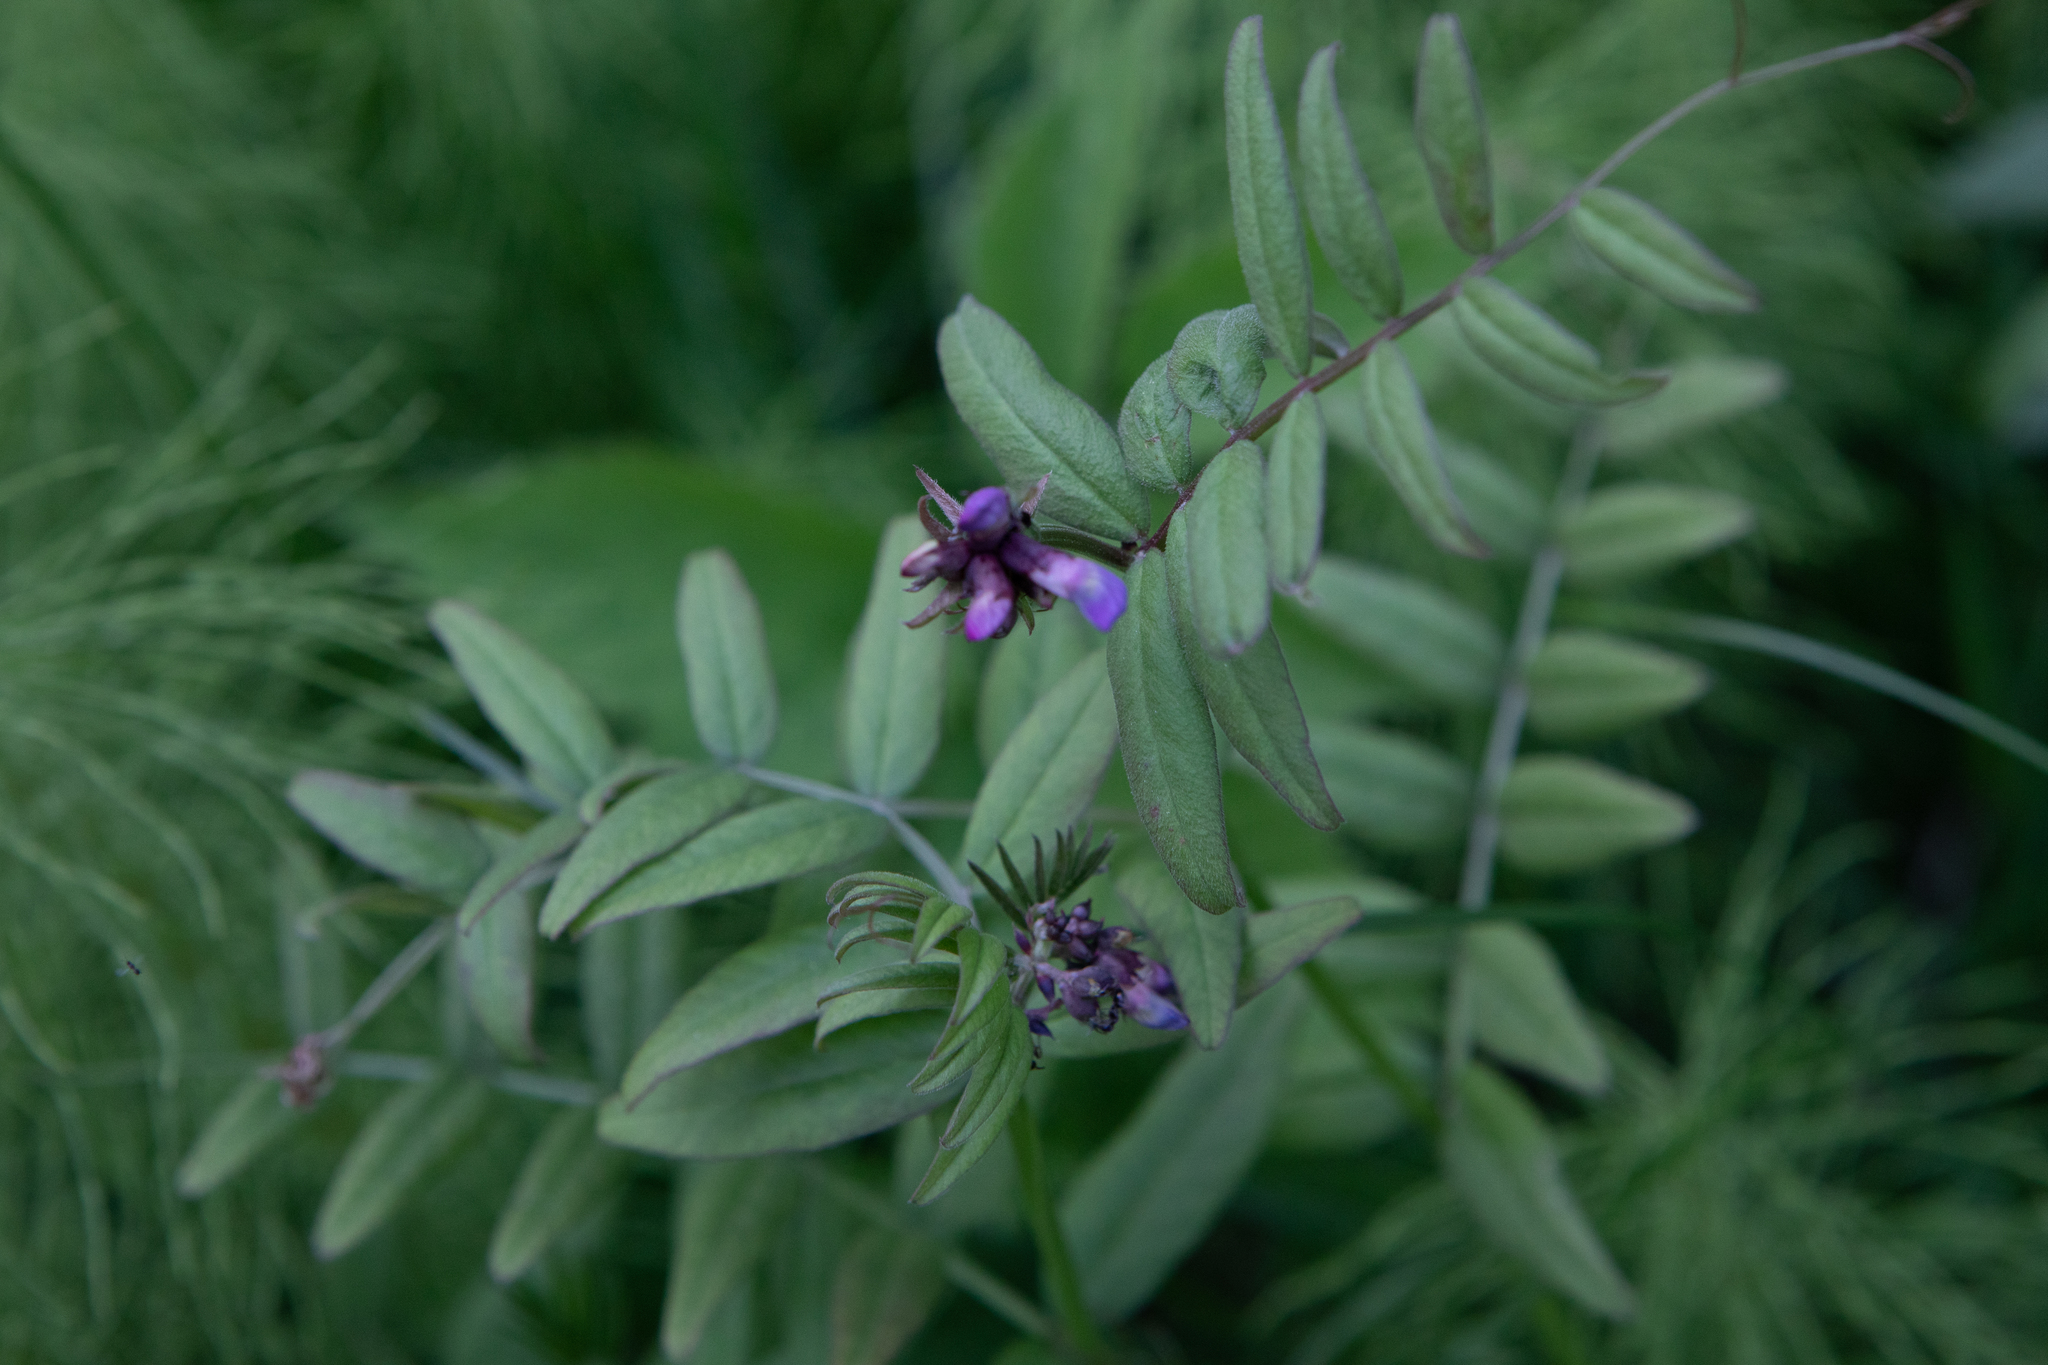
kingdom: Plantae
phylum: Tracheophyta
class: Magnoliopsida
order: Fabales
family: Fabaceae
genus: Vicia
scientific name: Vicia sepium
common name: Bush vetch
